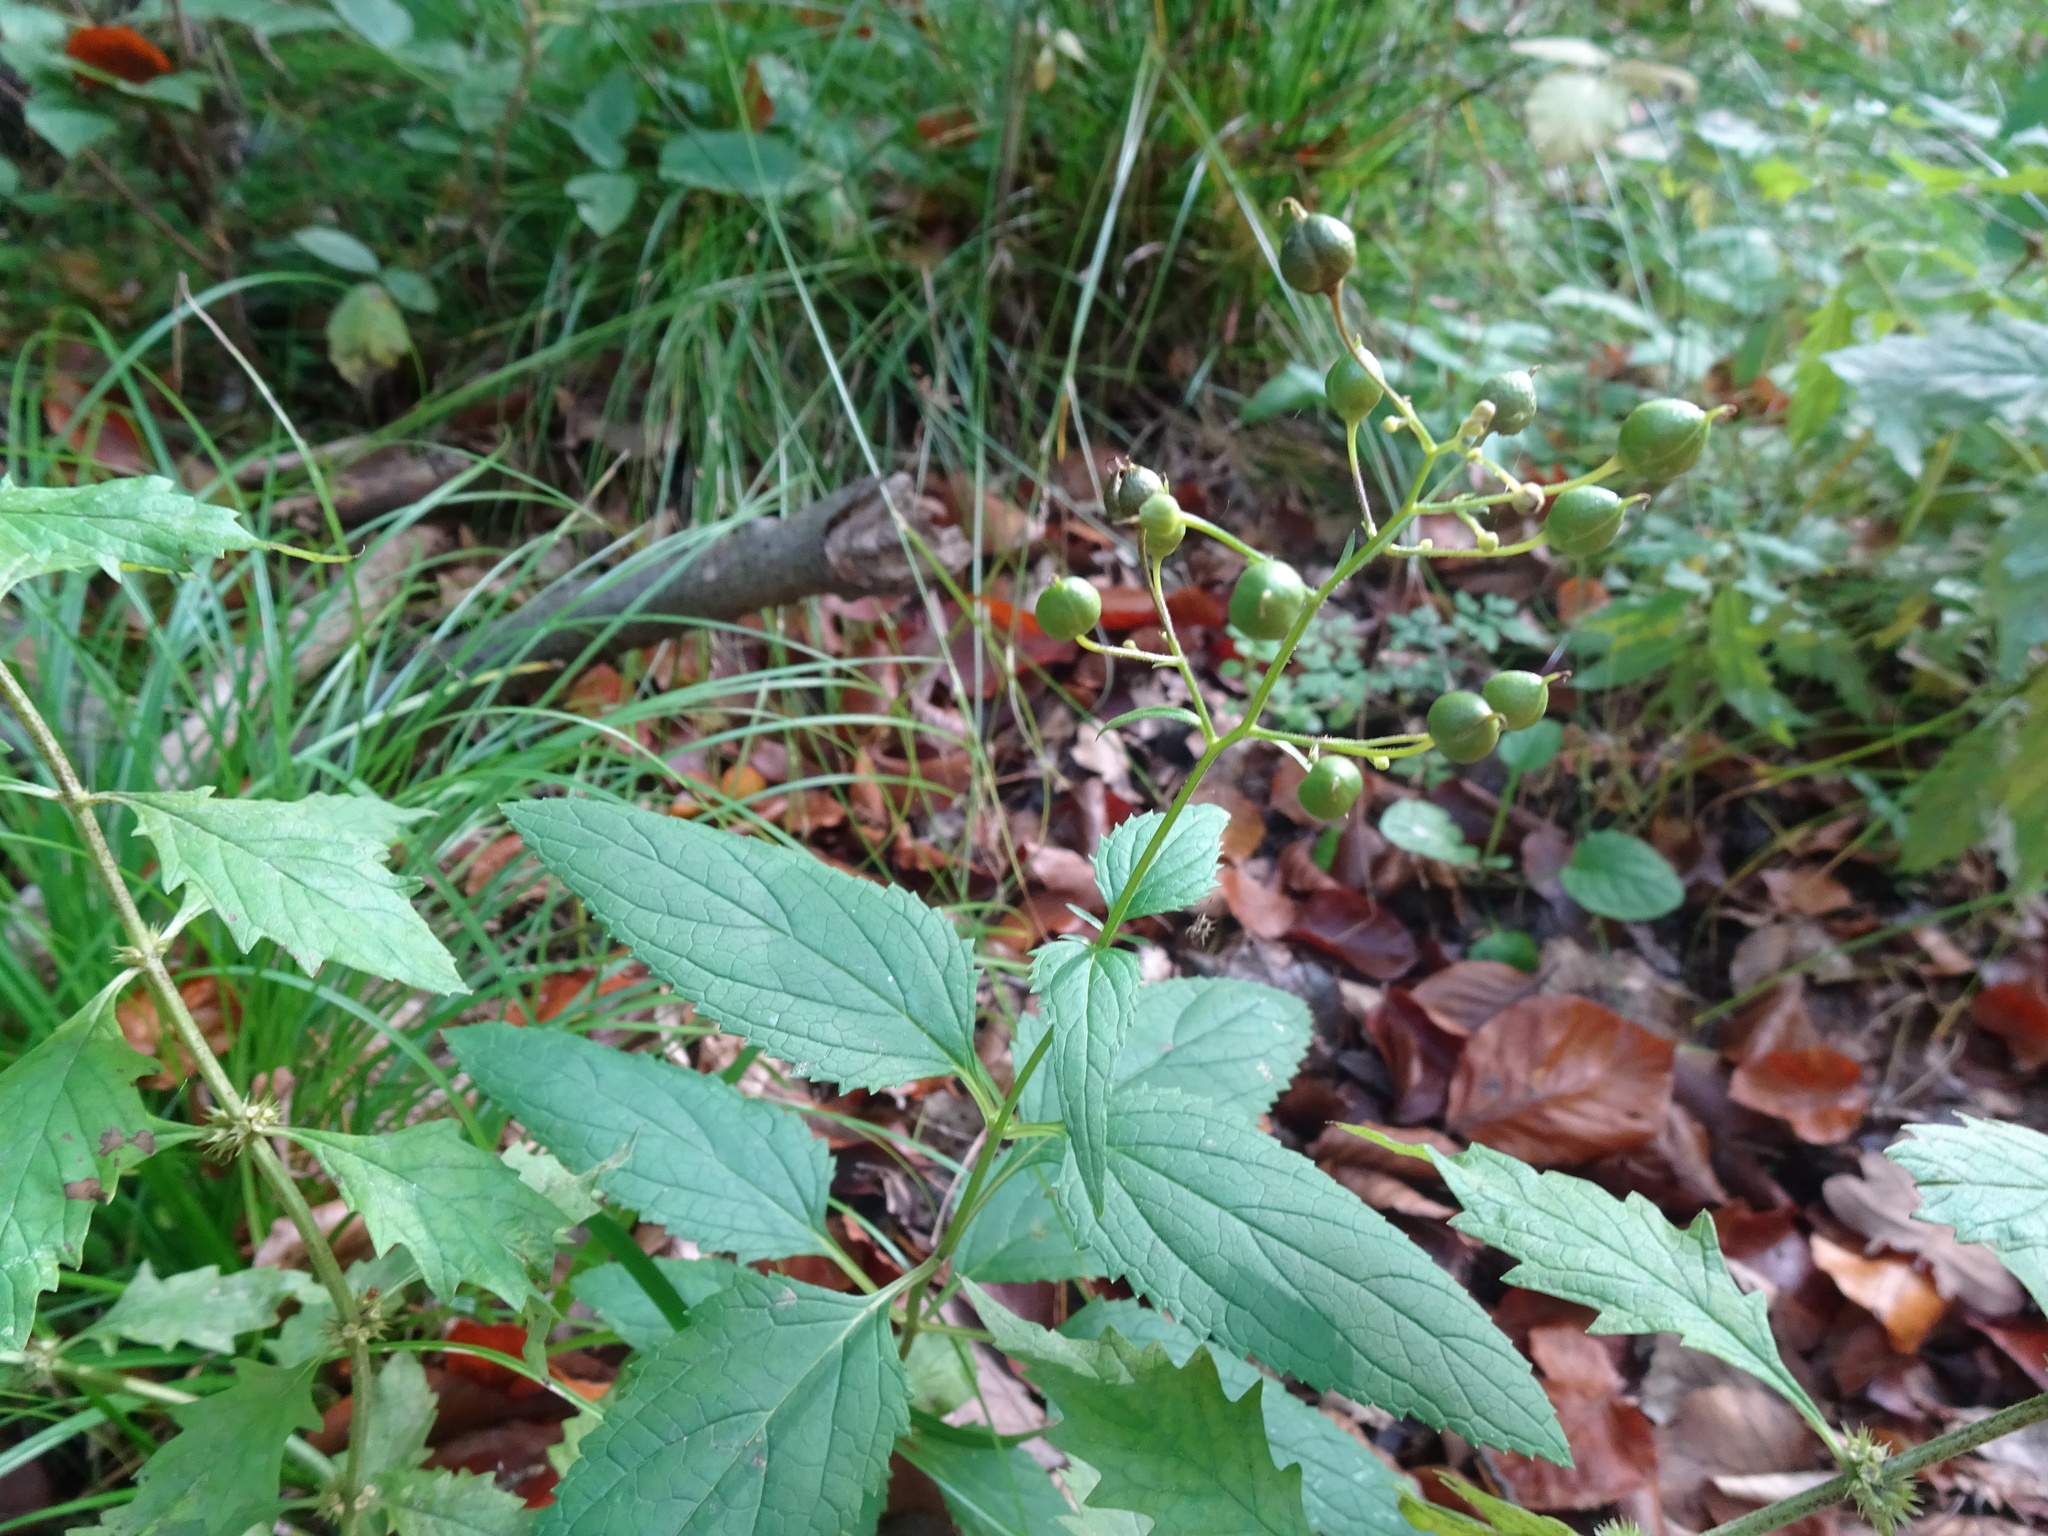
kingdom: Plantae
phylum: Tracheophyta
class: Magnoliopsida
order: Lamiales
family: Scrophulariaceae
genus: Scrophularia
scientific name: Scrophularia nodosa
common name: Common figwort
